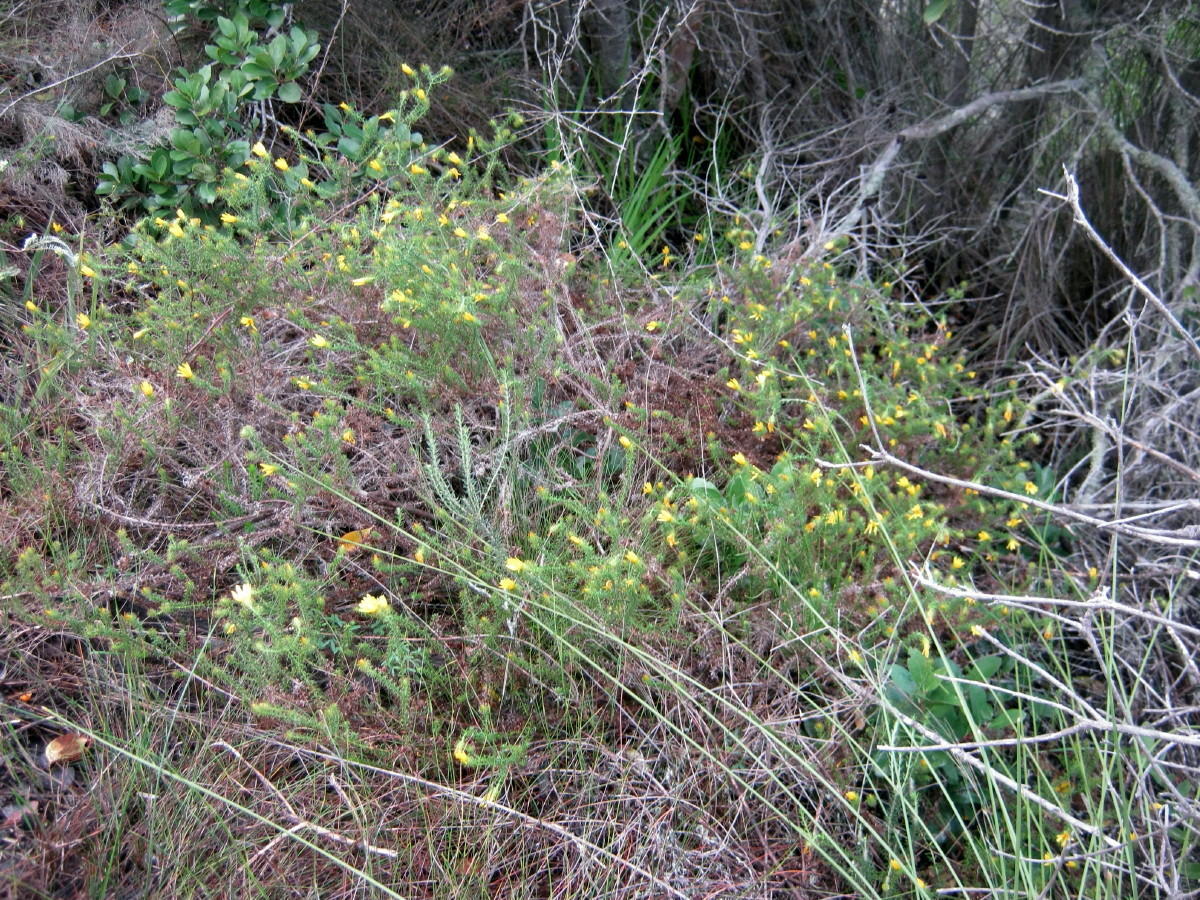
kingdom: Plantae
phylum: Tracheophyta
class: Magnoliopsida
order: Asterales
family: Asteraceae
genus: Cullumia
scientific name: Cullumia decurrens
